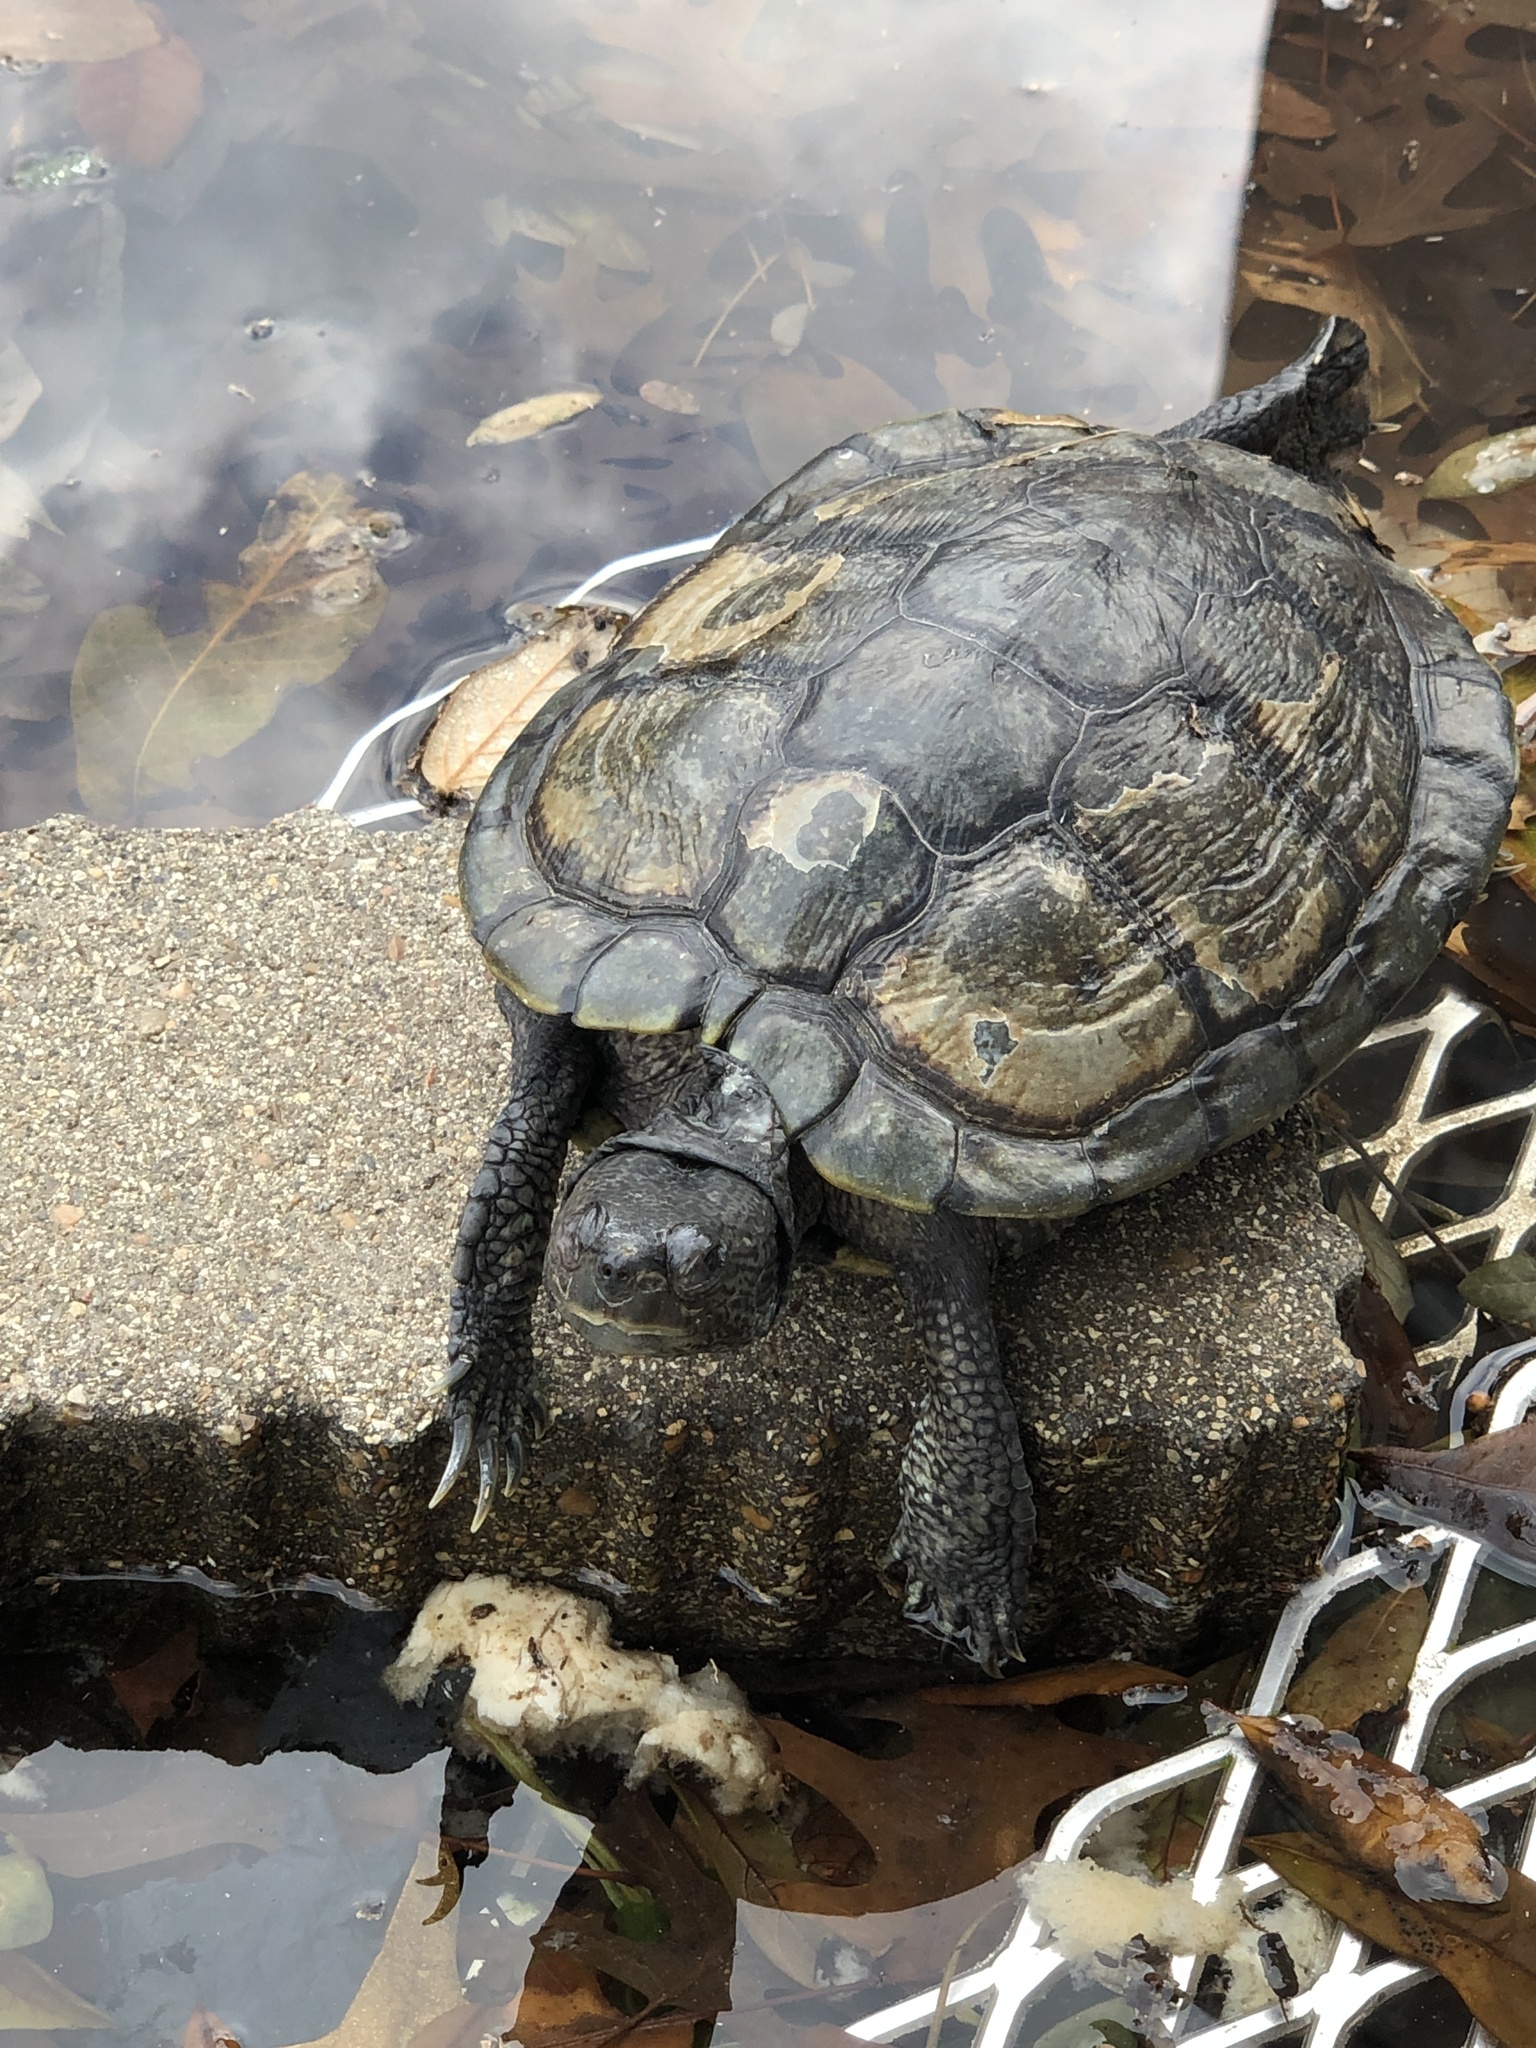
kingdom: Animalia
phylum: Chordata
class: Testudines
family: Emydidae
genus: Trachemys
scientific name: Trachemys scripta
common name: Slider
